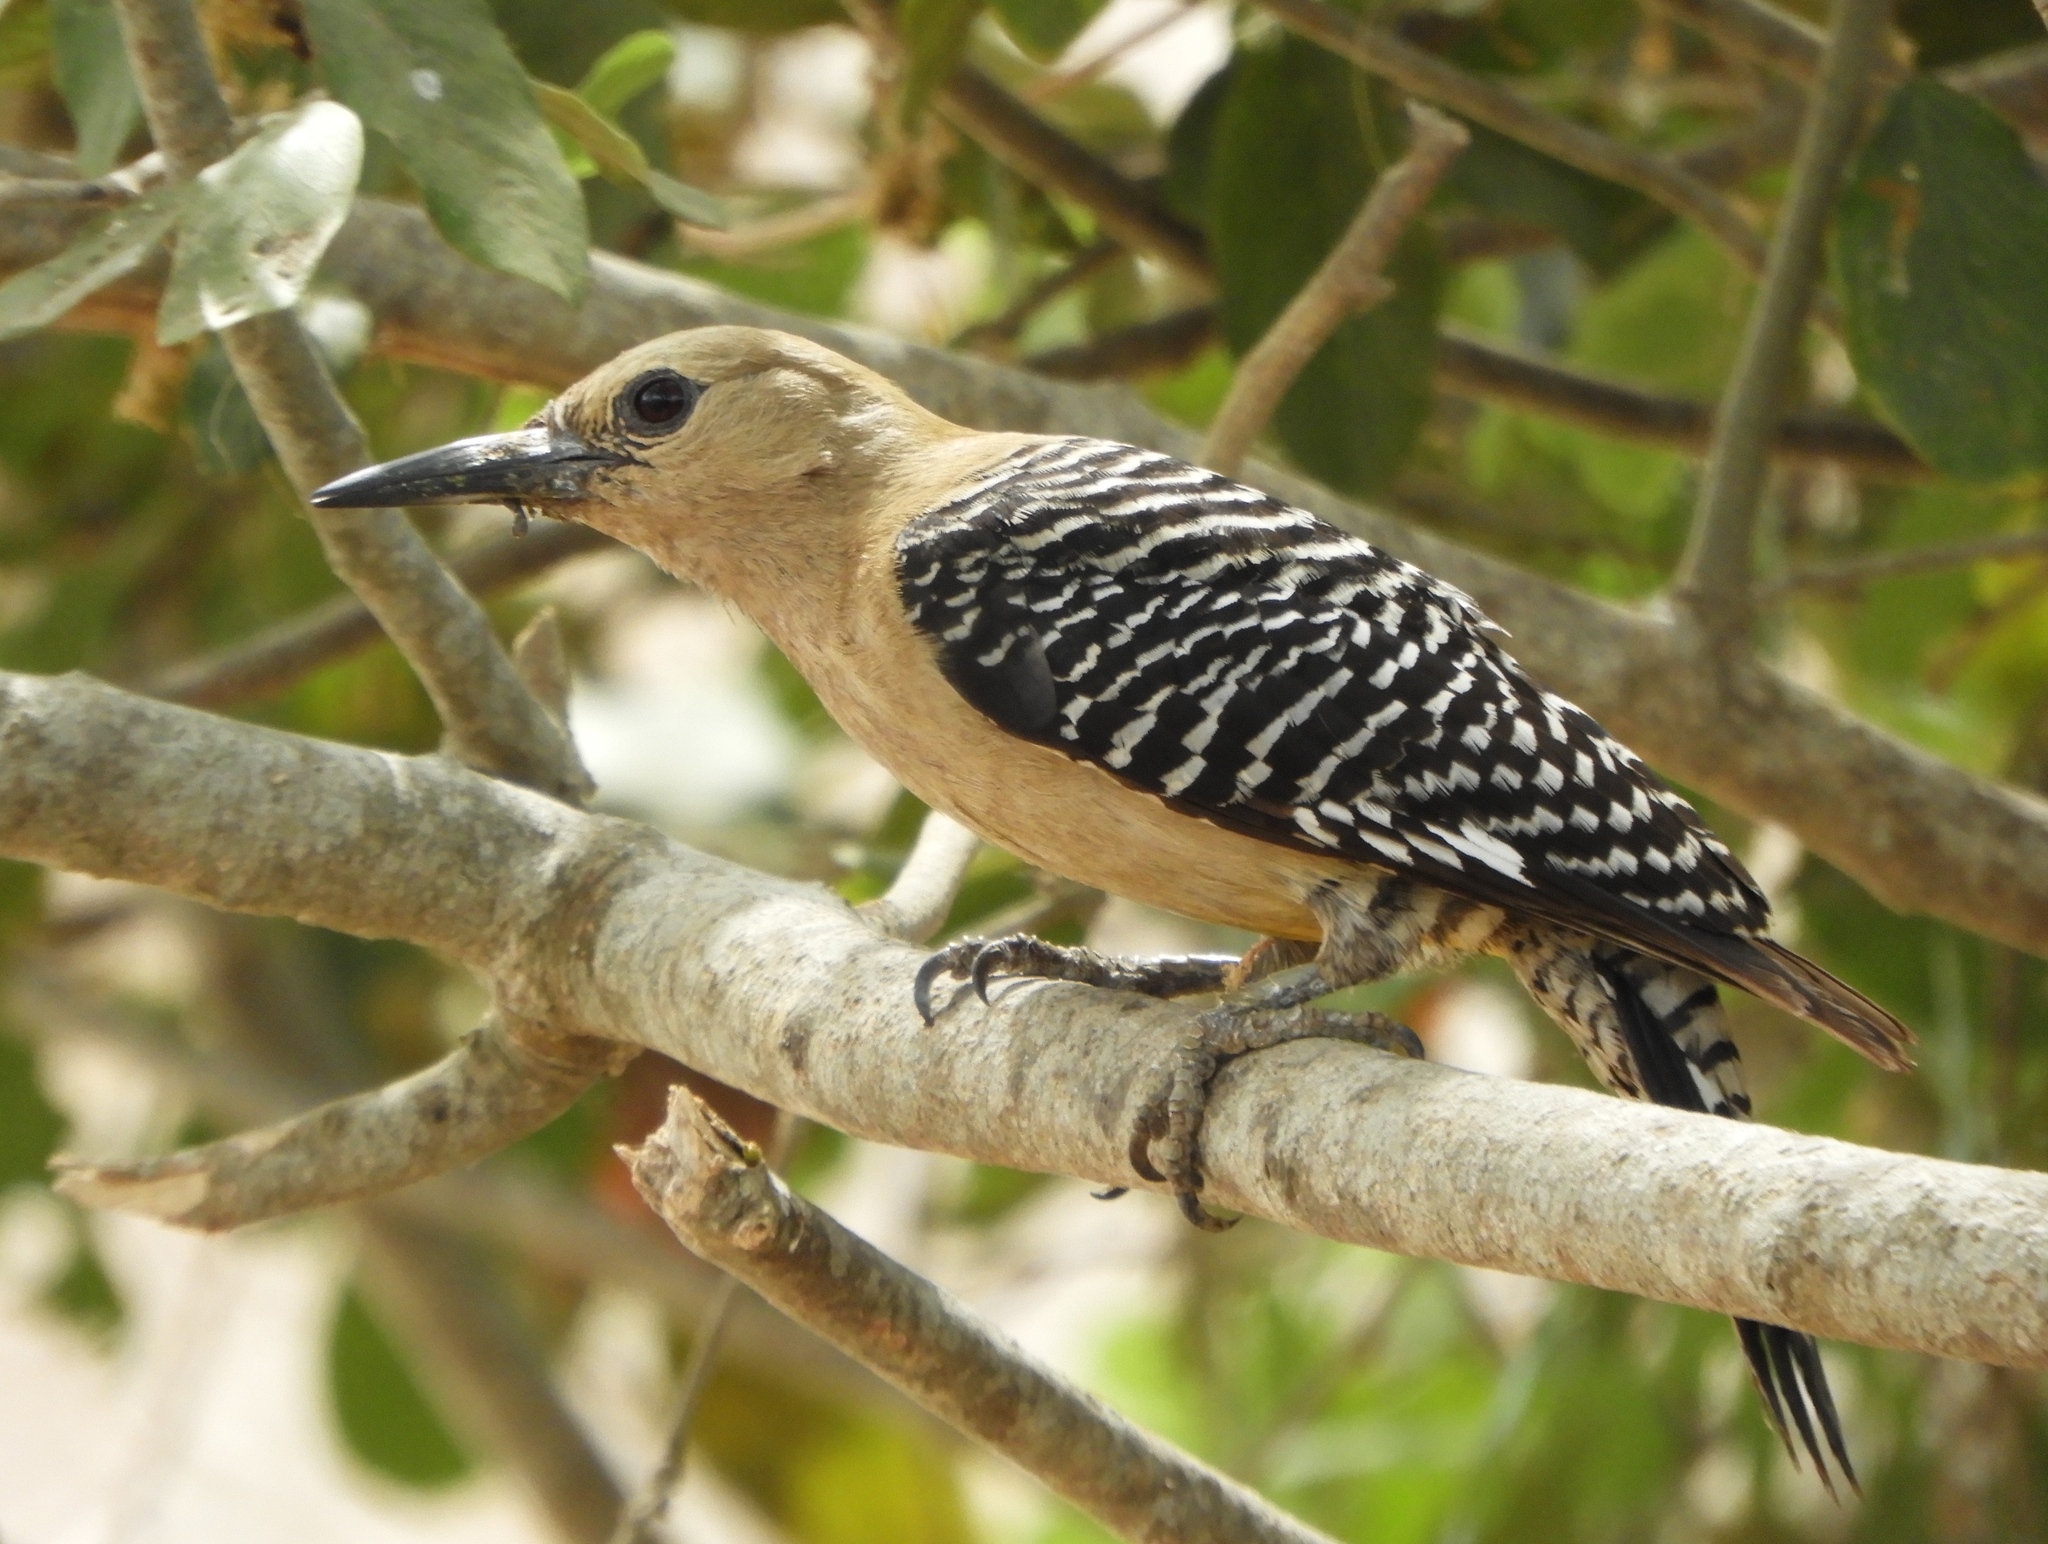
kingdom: Animalia
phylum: Chordata
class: Aves
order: Piciformes
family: Picidae
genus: Melanerpes
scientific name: Melanerpes uropygialis
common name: Gila woodpecker
